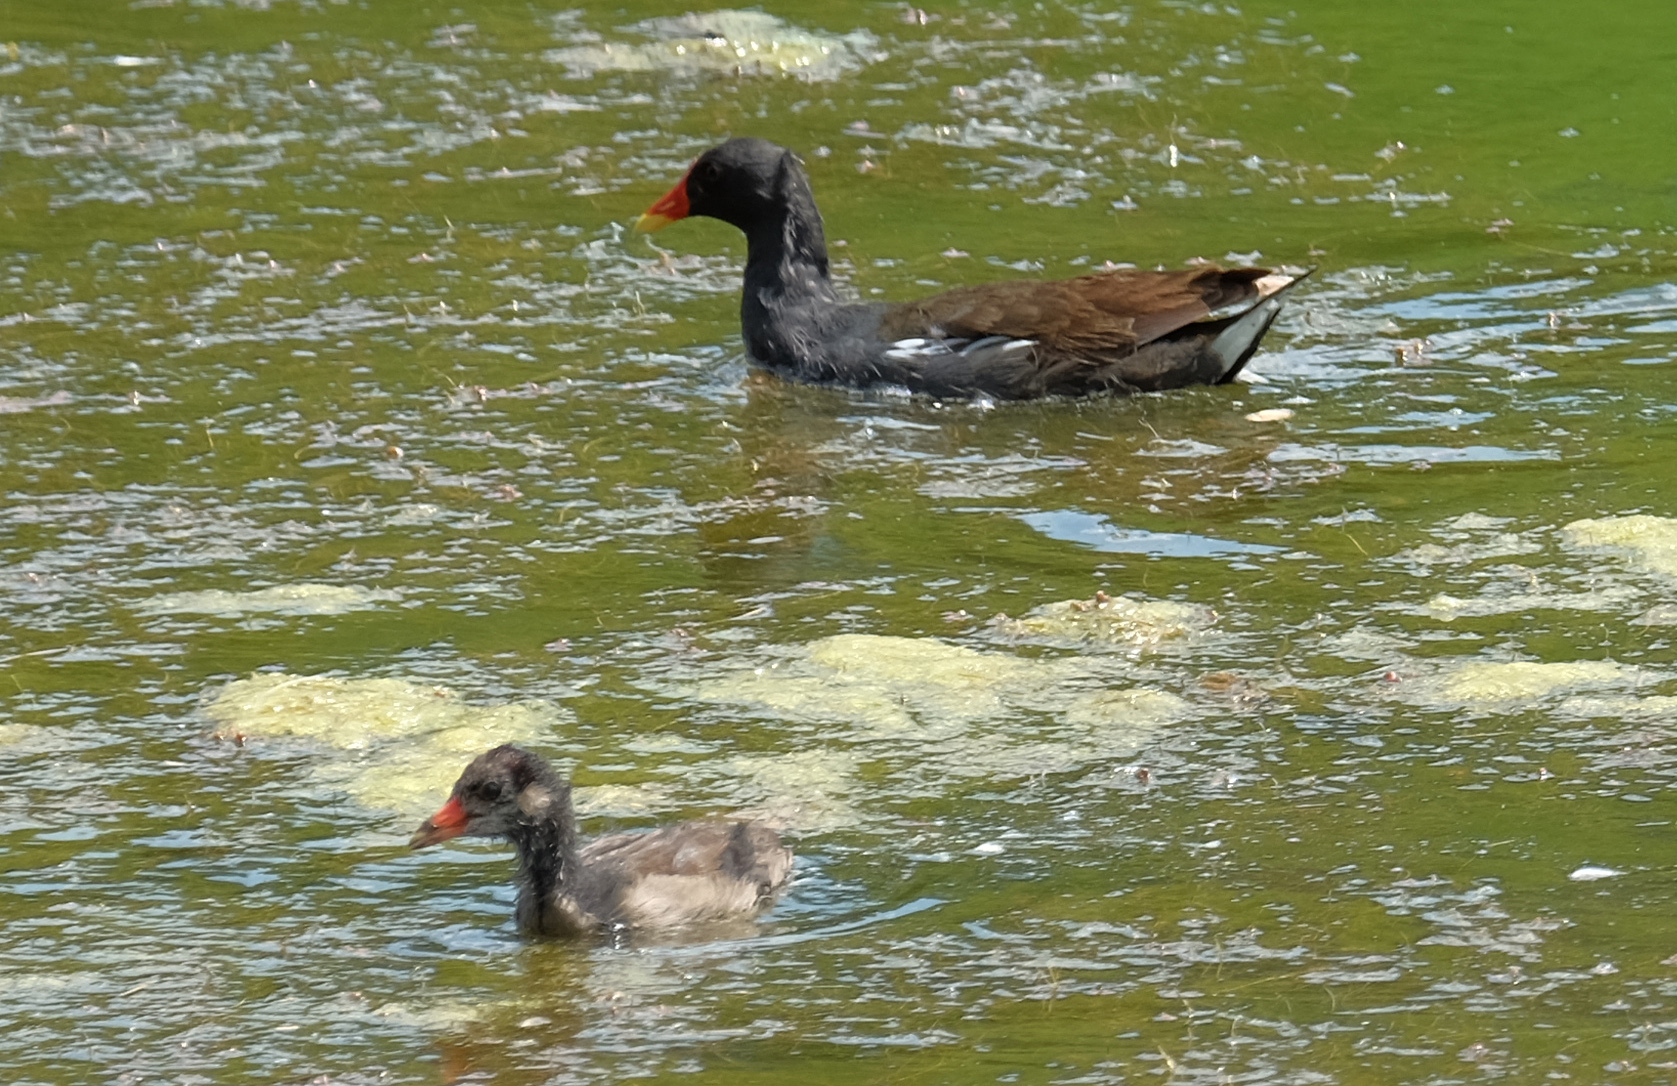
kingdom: Animalia
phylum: Chordata
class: Aves
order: Gruiformes
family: Rallidae
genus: Gallinula
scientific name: Gallinula chloropus
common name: Common moorhen
